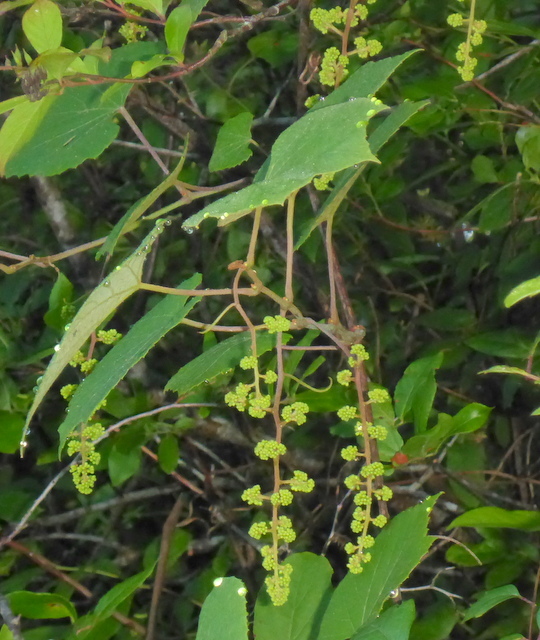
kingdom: Plantae
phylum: Tracheophyta
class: Magnoliopsida
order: Vitales
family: Vitaceae
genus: Vitis
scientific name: Vitis cinerea
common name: Ashy grape
